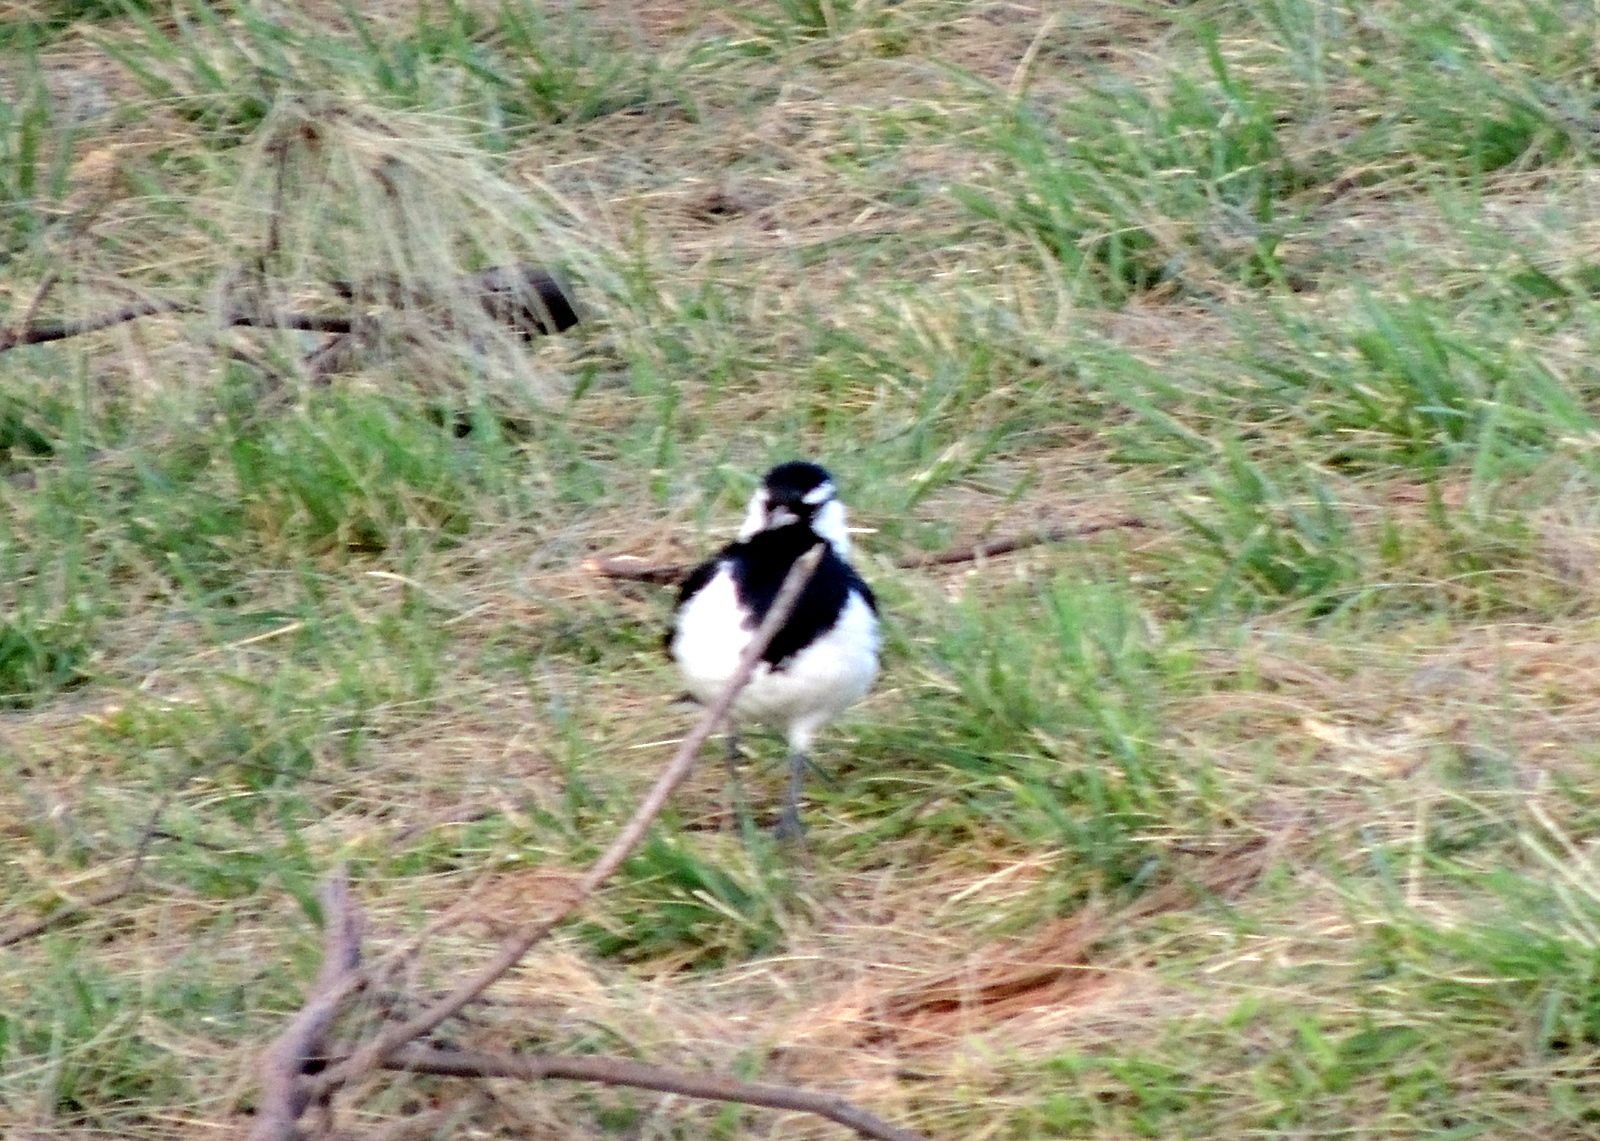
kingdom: Animalia
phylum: Chordata
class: Aves
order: Passeriformes
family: Monarchidae
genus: Grallina
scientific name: Grallina cyanoleuca
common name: Magpie-lark
